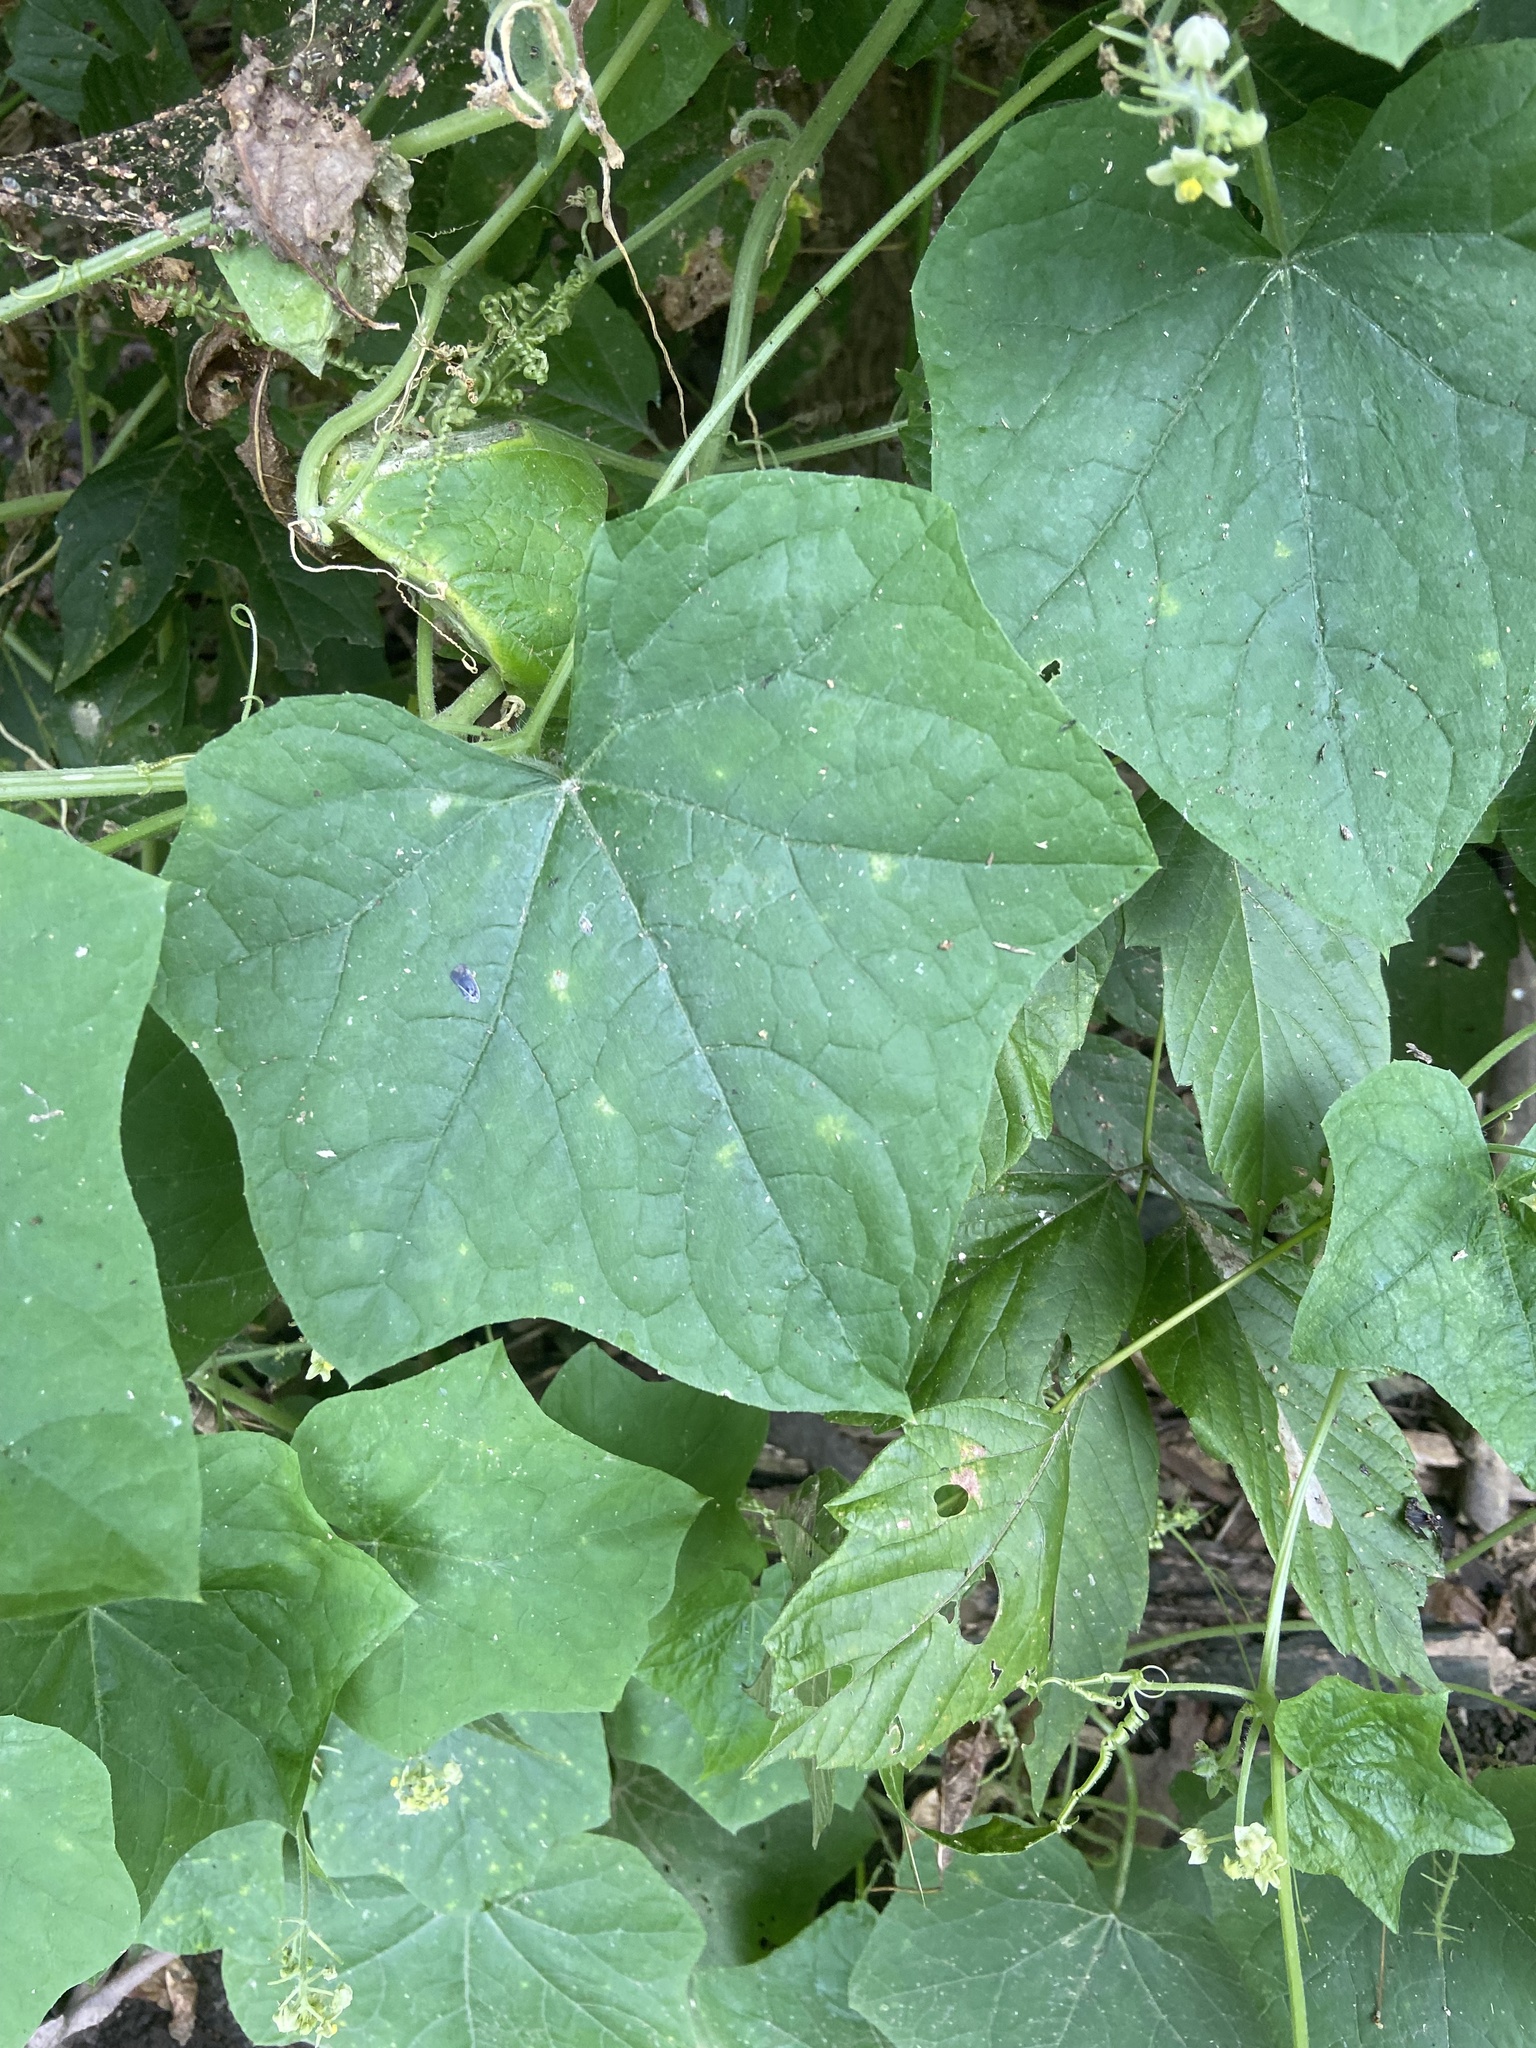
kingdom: Plantae
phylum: Tracheophyta
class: Magnoliopsida
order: Cucurbitales
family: Cucurbitaceae
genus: Sicyos
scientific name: Sicyos angulatus
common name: Angled burr cucumber
